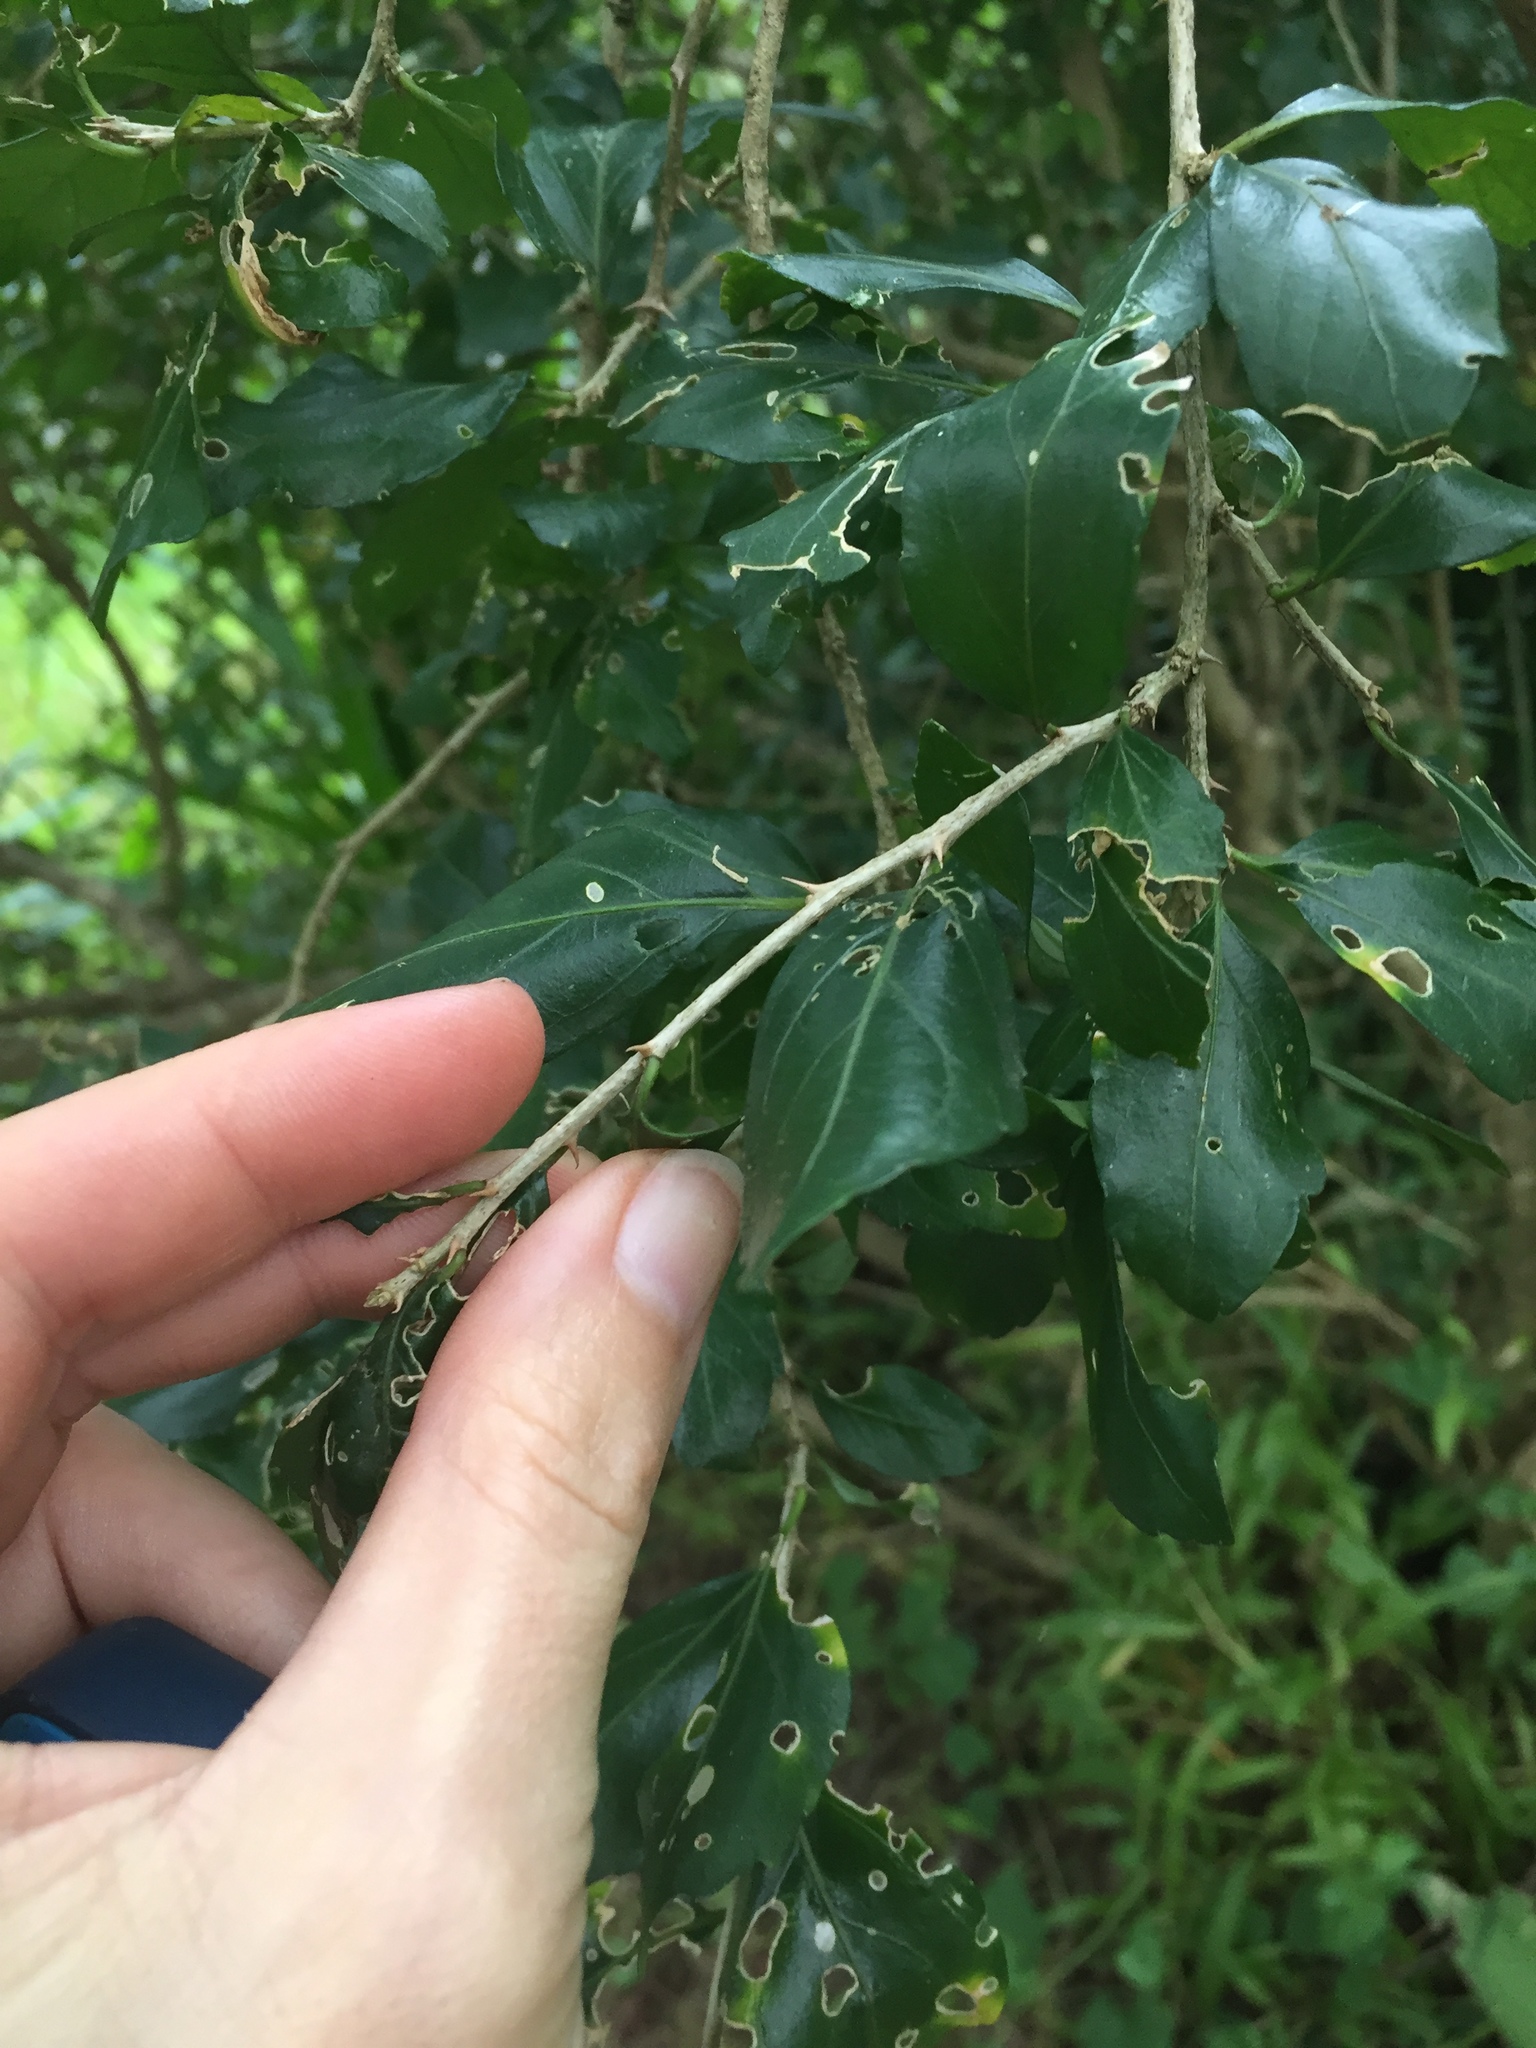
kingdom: Plantae
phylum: Tracheophyta
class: Magnoliopsida
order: Malpighiales
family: Euphorbiaceae
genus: Erythrococca
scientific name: Erythrococca berberidea
